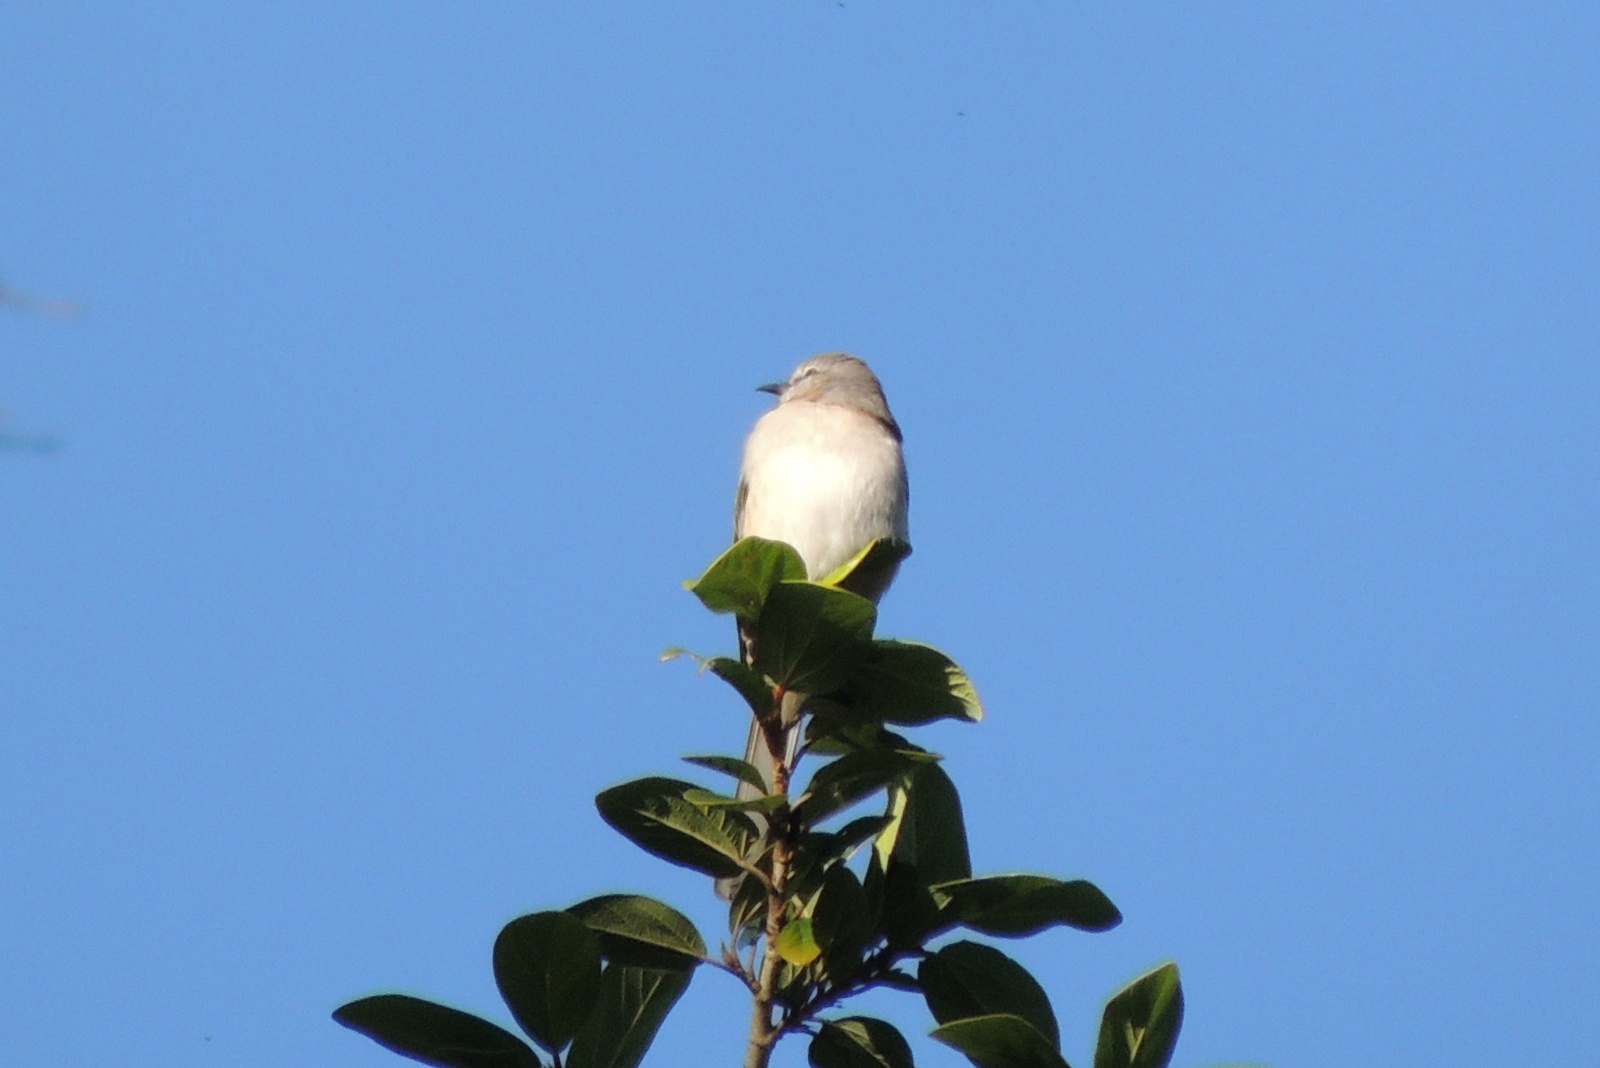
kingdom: Animalia
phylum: Chordata
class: Aves
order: Passeriformes
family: Polioptilidae
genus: Polioptila
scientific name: Polioptila caerulea
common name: Blue-gray gnatcatcher
